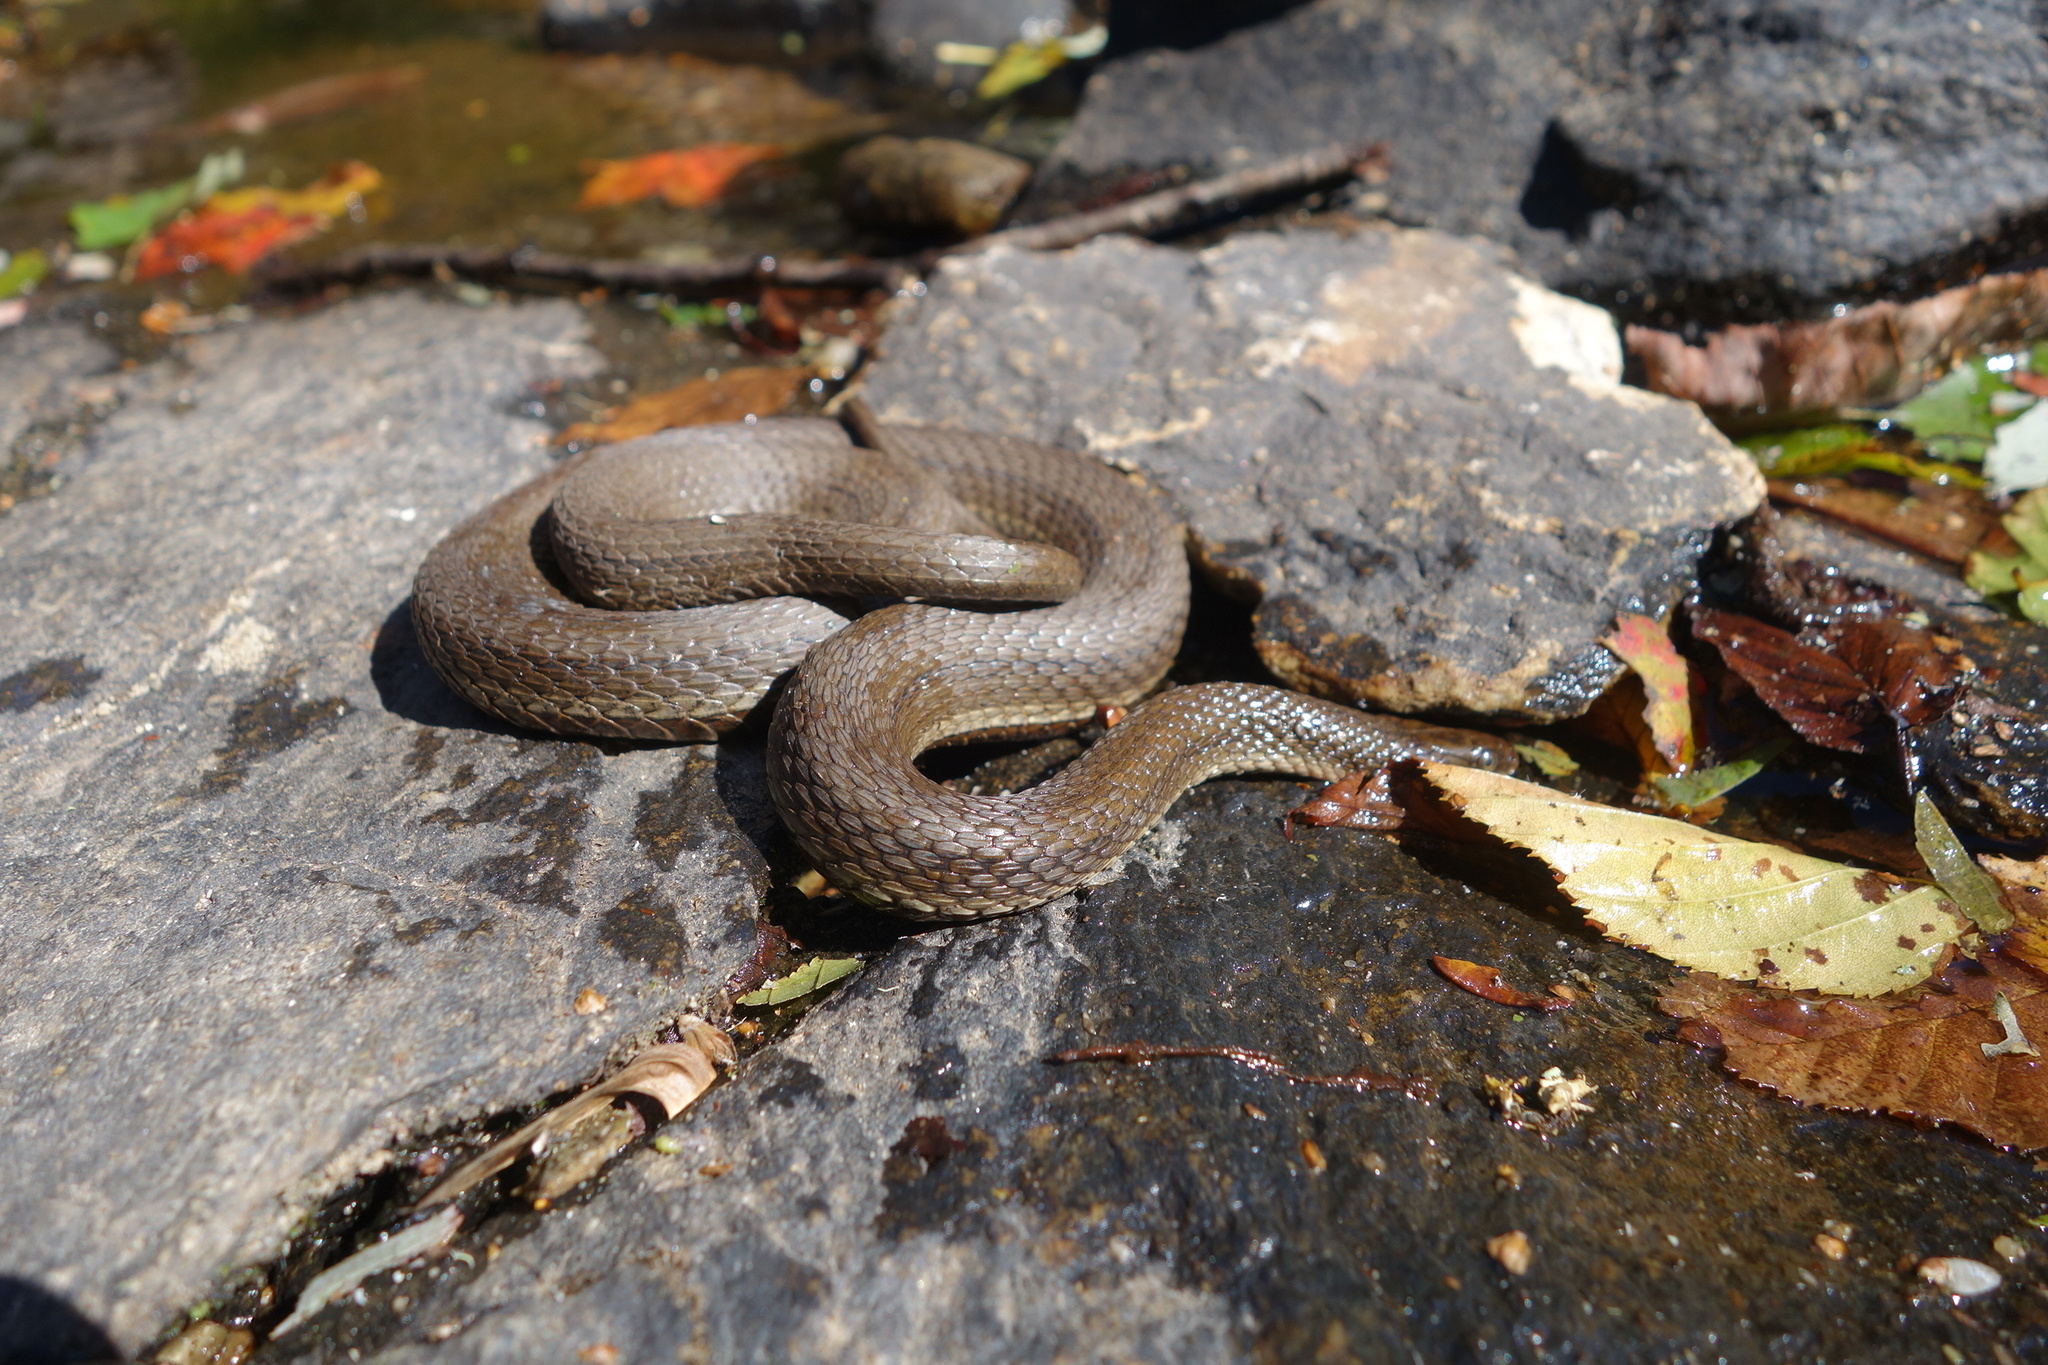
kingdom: Animalia
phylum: Chordata
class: Squamata
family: Colubridae
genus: Regina
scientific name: Regina septemvittata
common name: Queen snake
